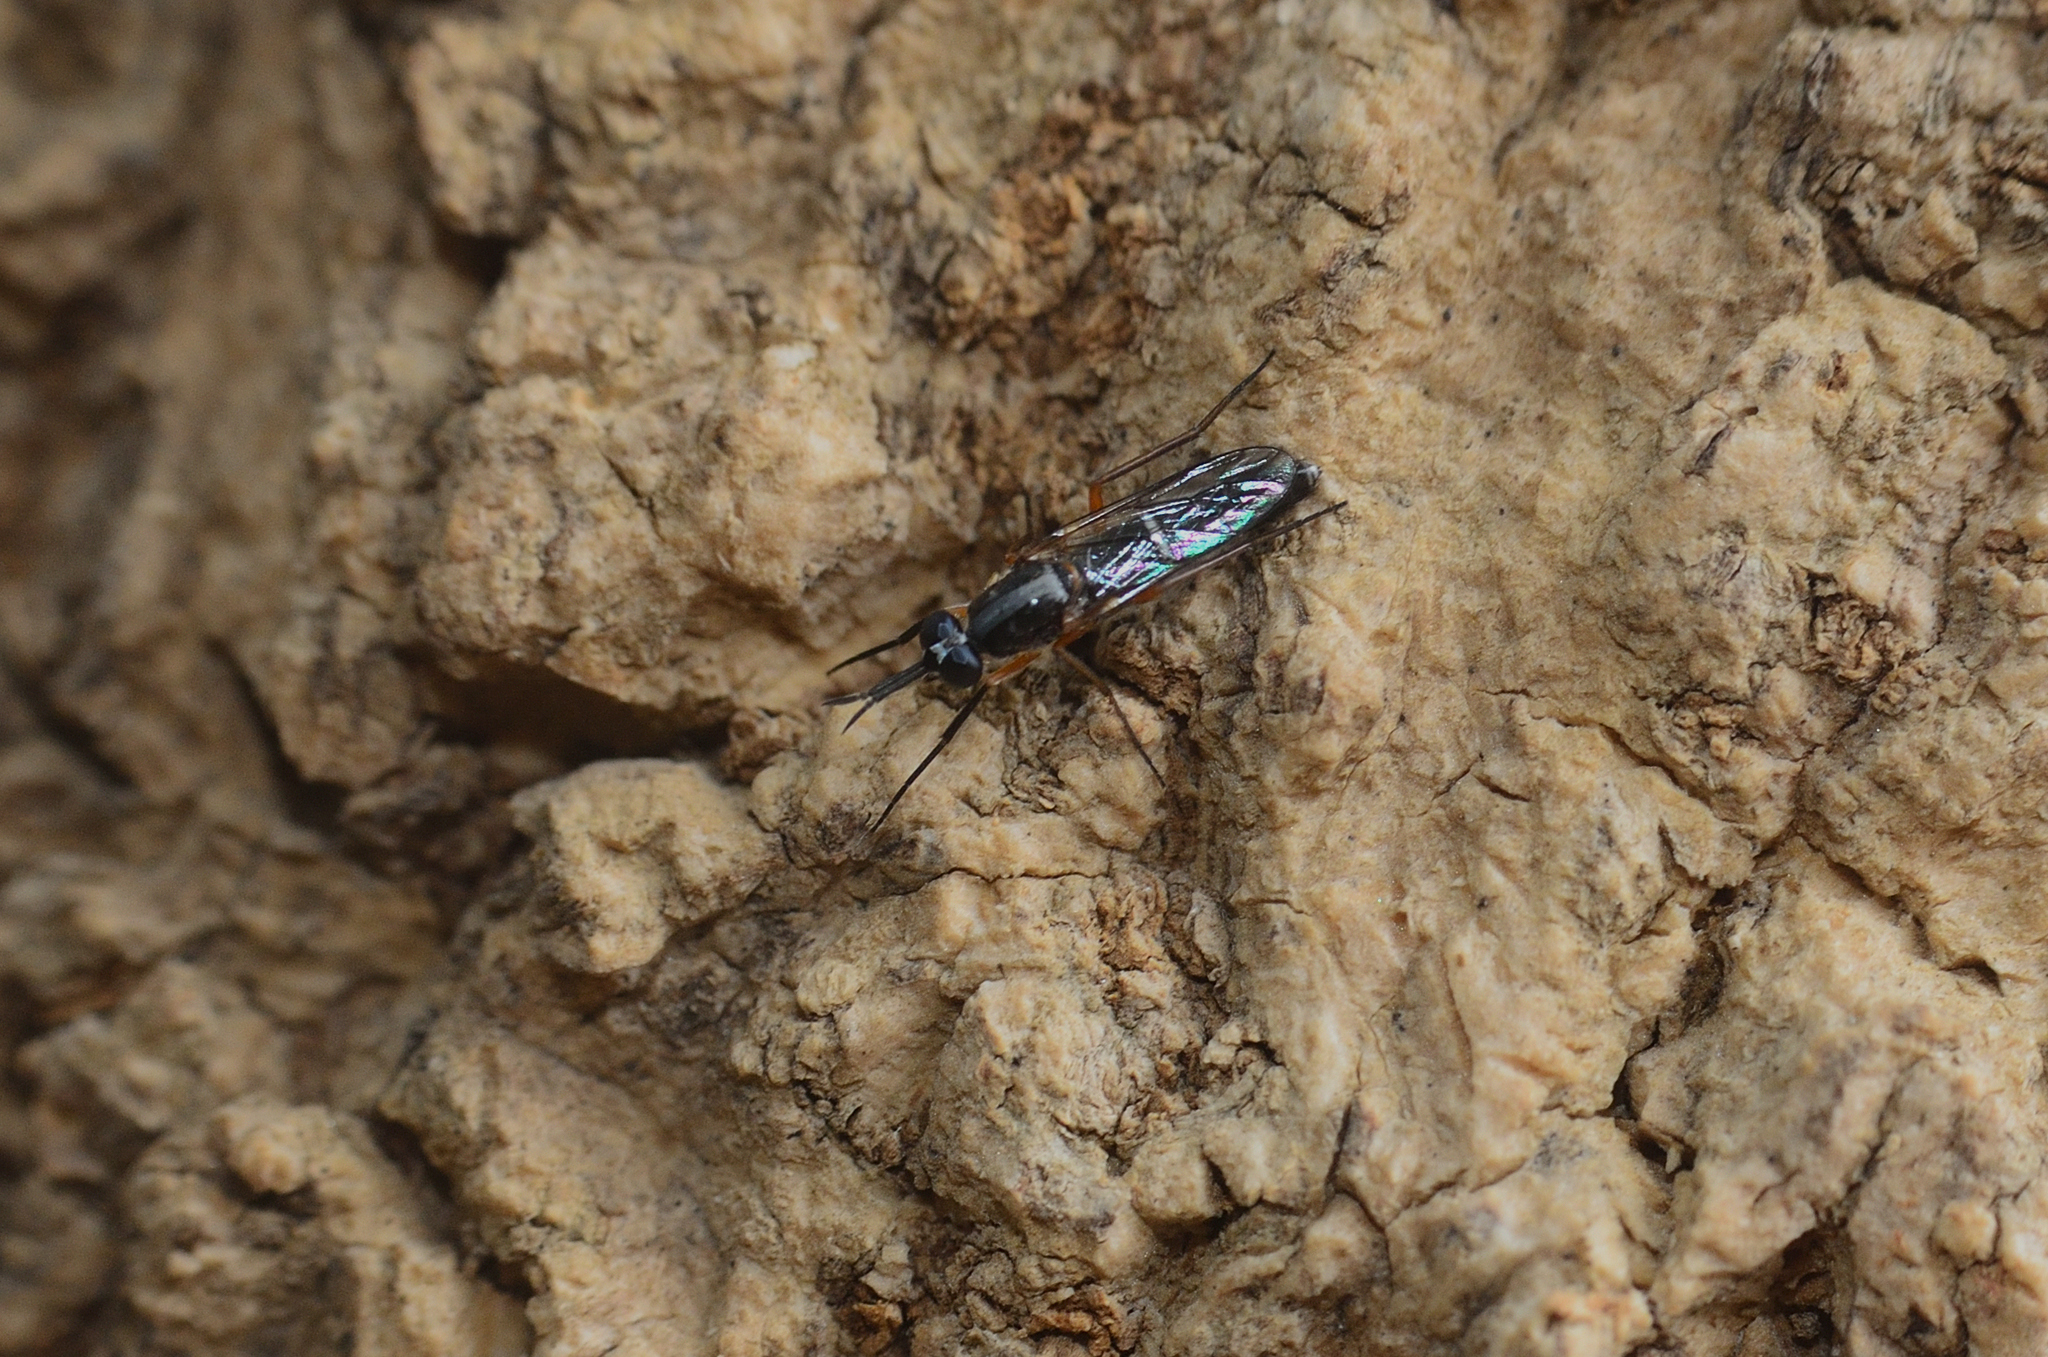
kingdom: Animalia
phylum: Arthropoda
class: Insecta
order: Diptera
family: Therevidae
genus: Phycus
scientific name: Phycus brunneus
